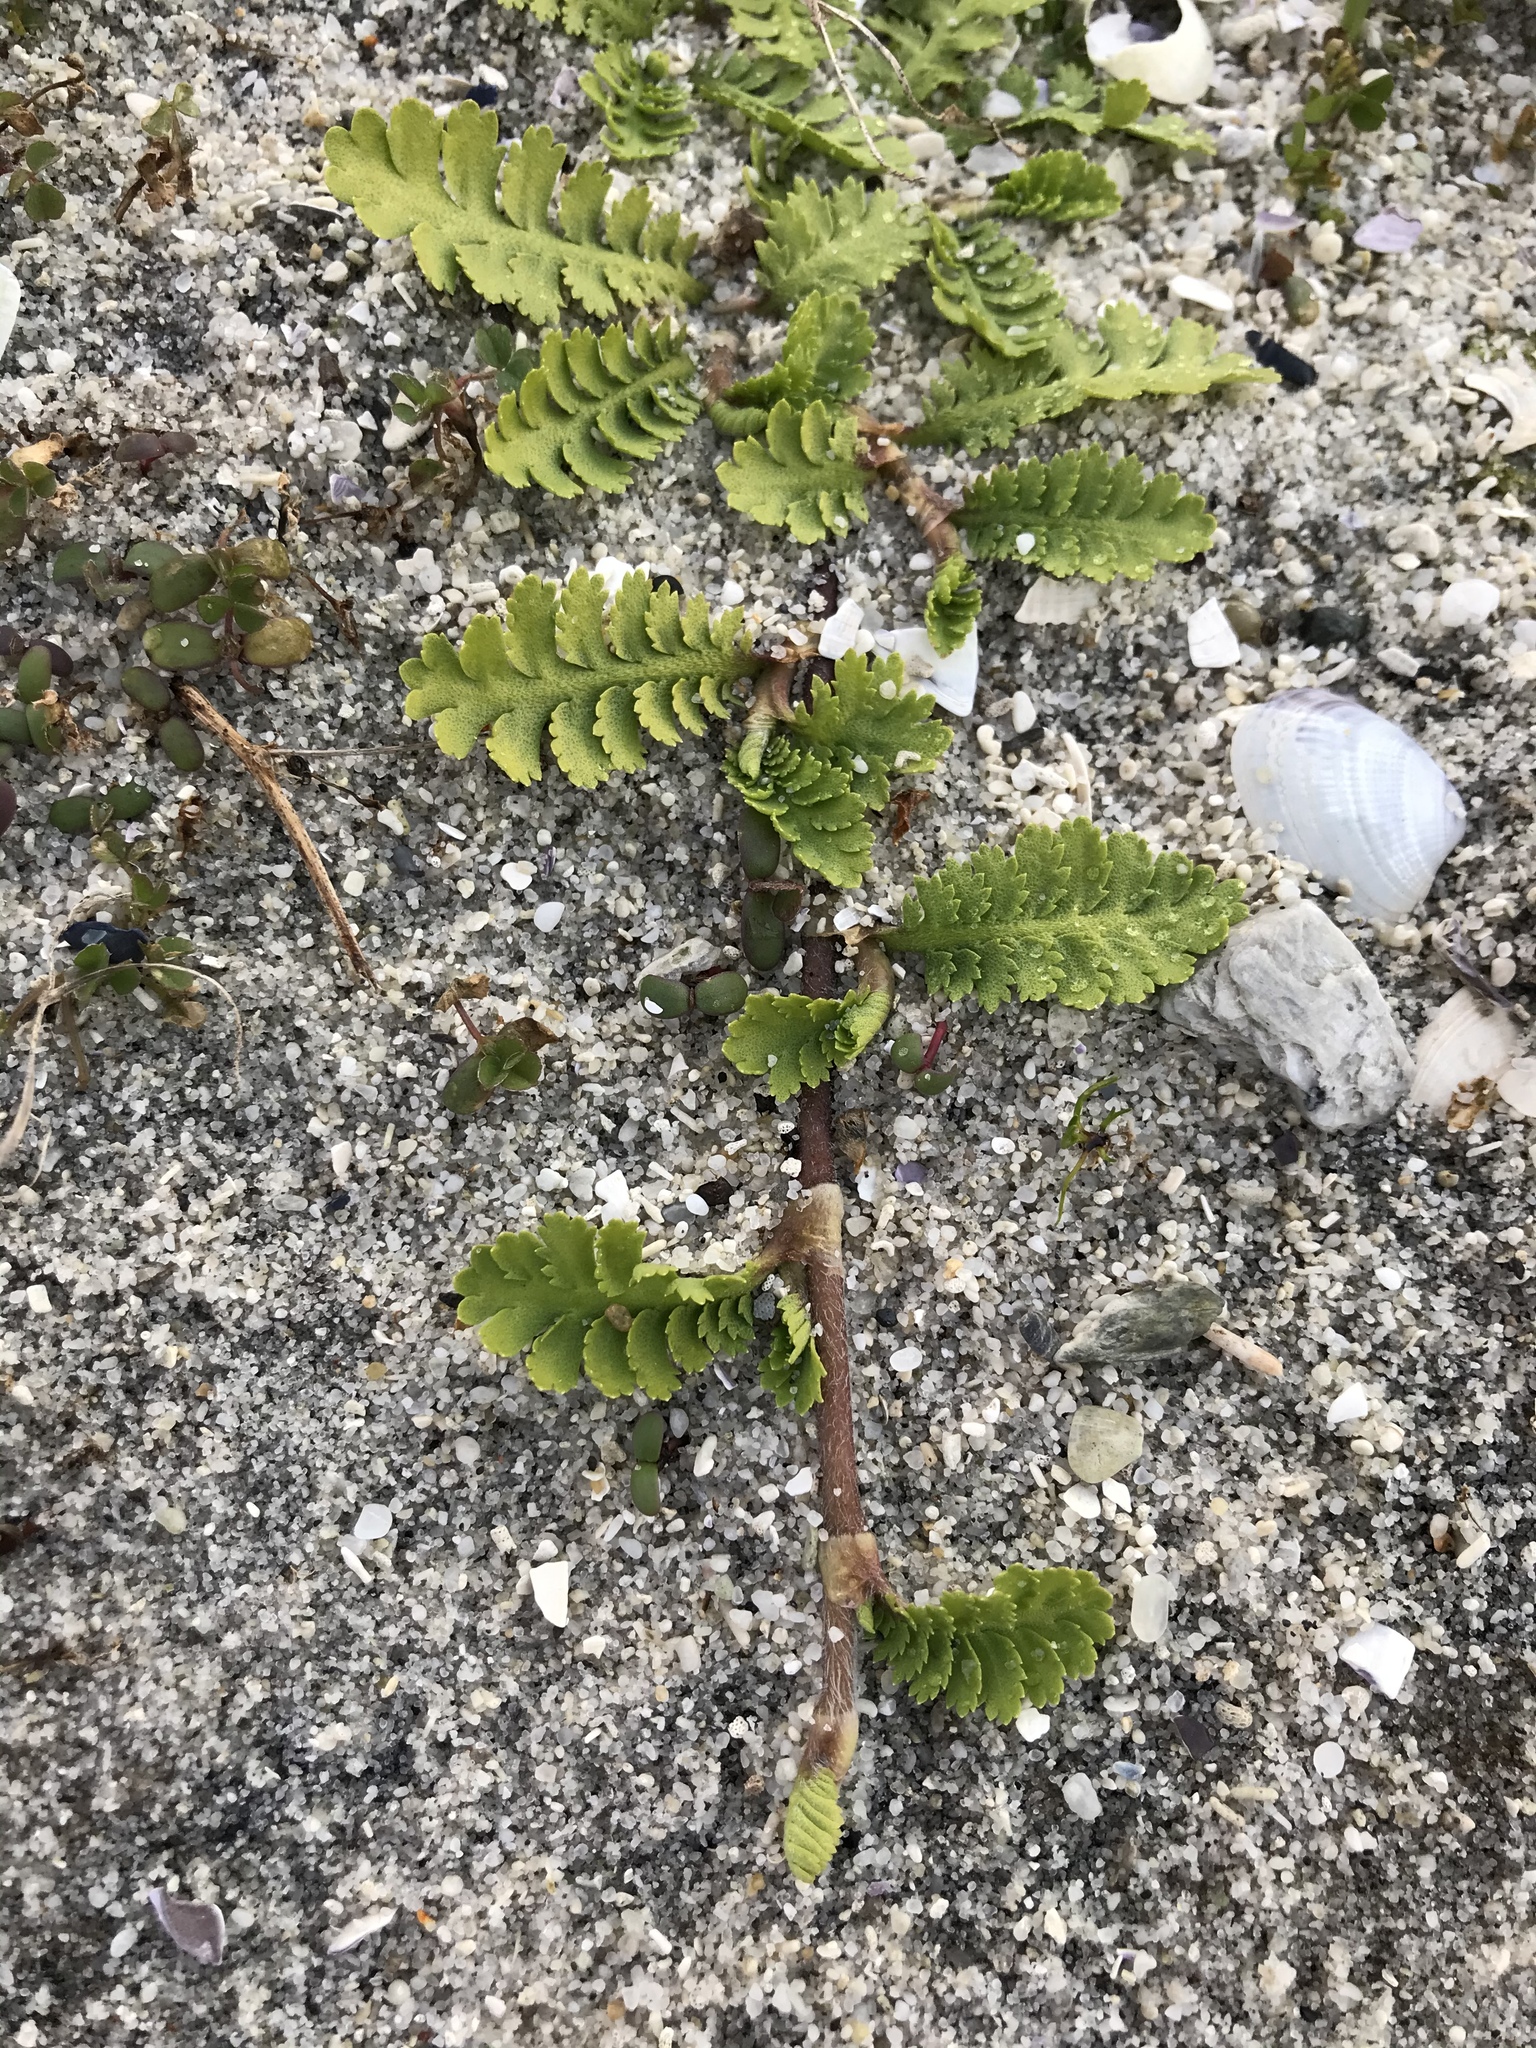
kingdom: Plantae
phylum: Tracheophyta
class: Magnoliopsida
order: Asterales
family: Asteraceae
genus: Leptinella
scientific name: Leptinella potentillina
